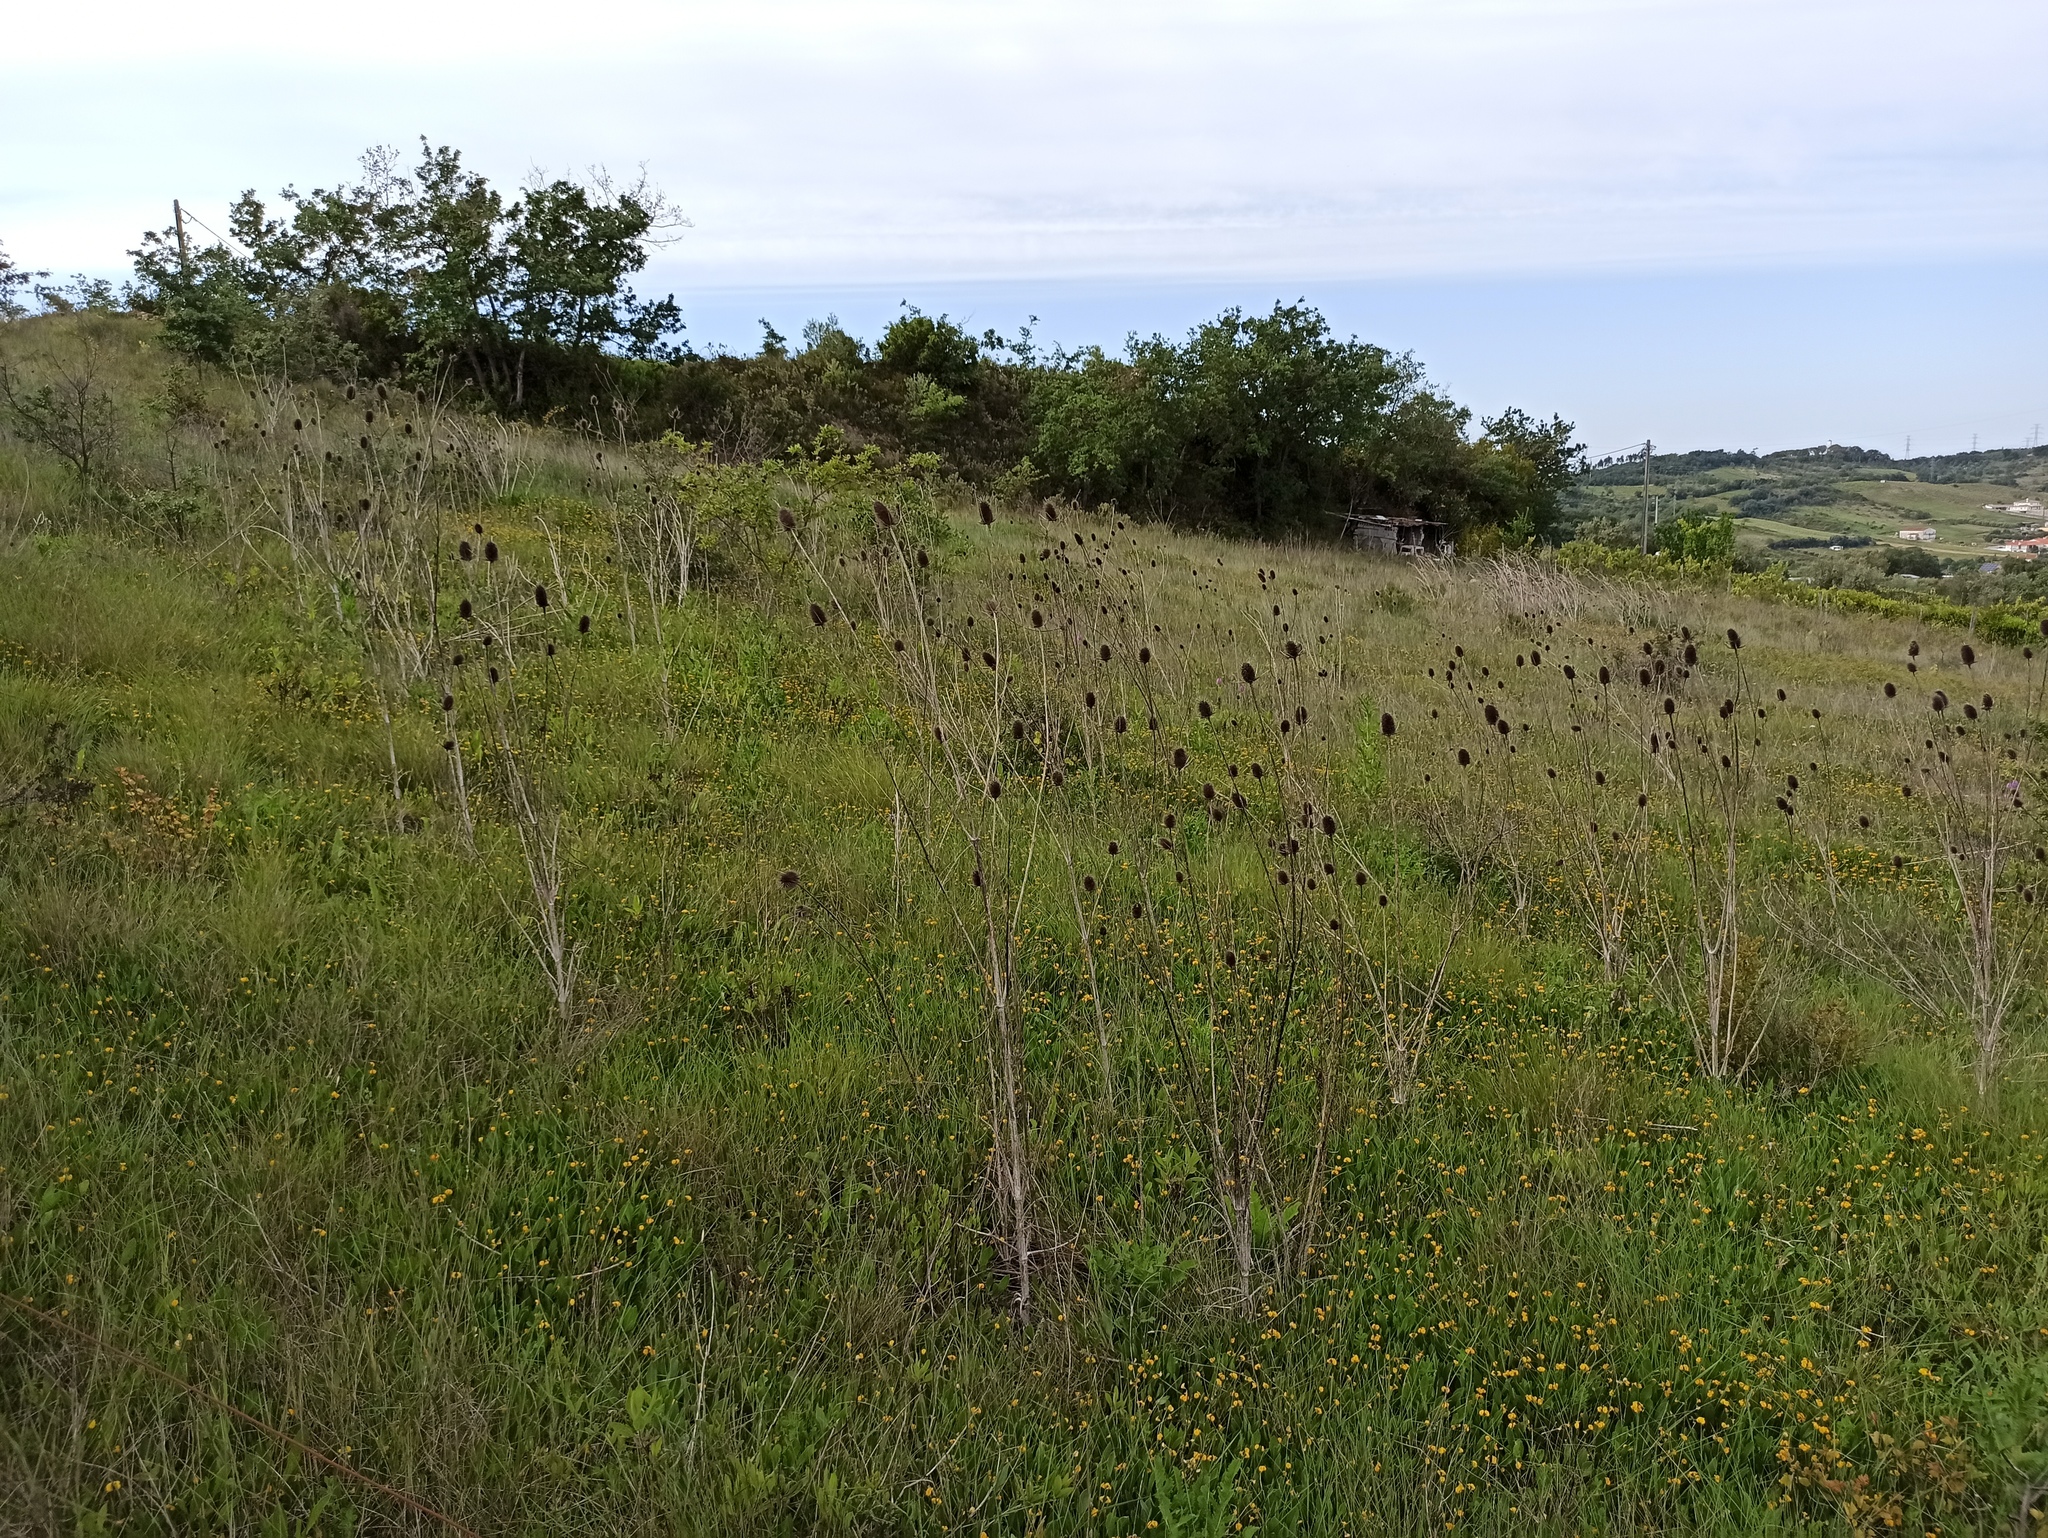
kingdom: Plantae
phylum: Tracheophyta
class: Magnoliopsida
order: Dipsacales
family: Caprifoliaceae
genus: Dipsacus
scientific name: Dipsacus comosus
